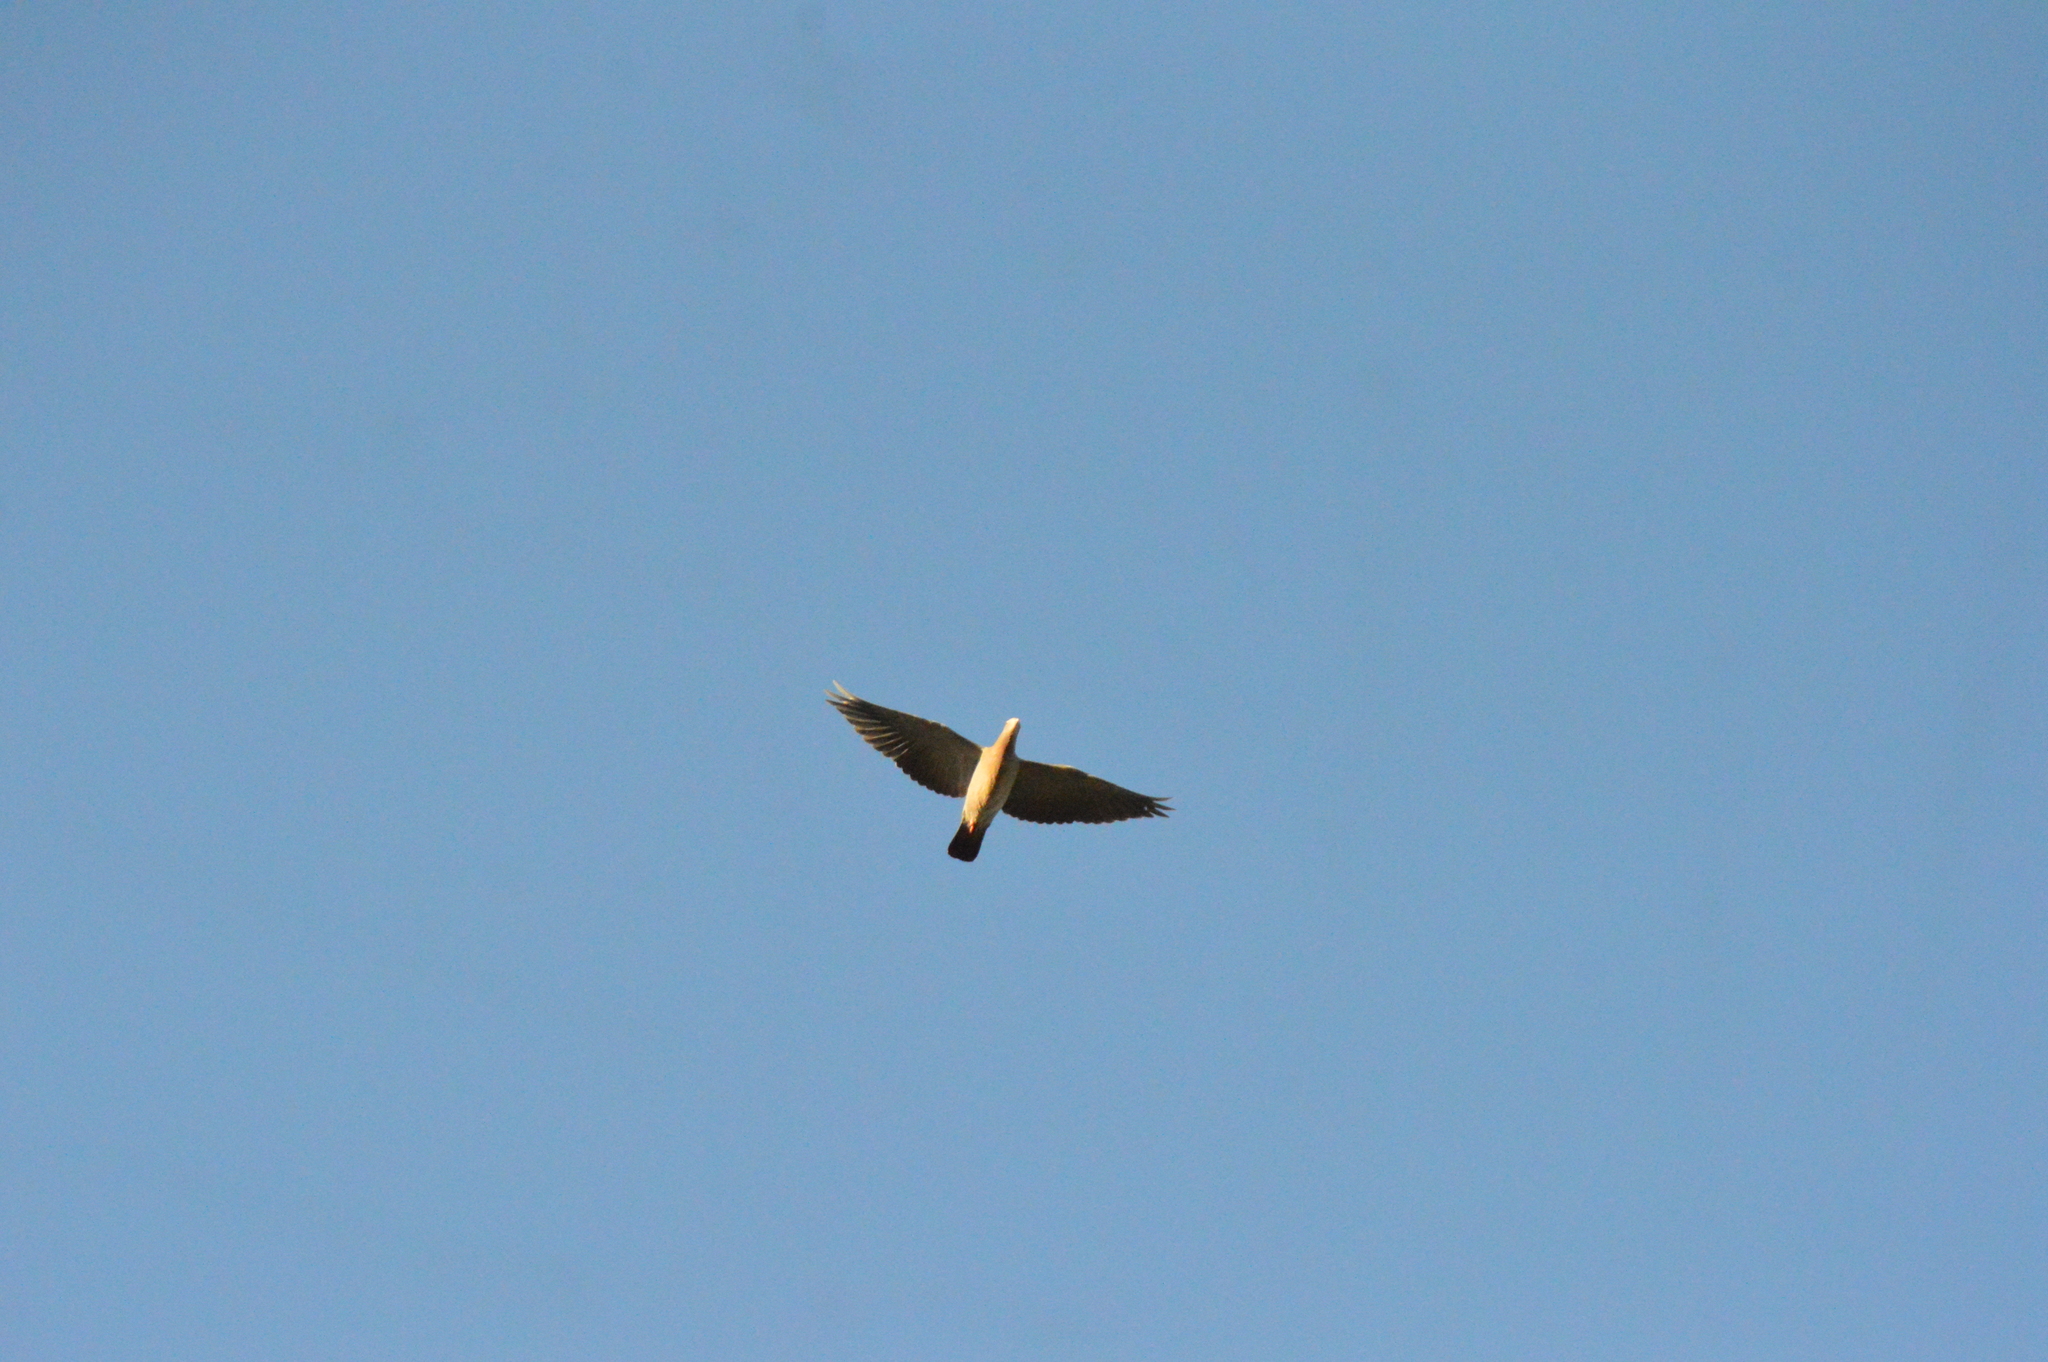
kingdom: Animalia
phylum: Chordata
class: Aves
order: Columbiformes
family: Columbidae
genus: Patagioenas
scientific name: Patagioenas picazuro
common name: Picazuro pigeon
